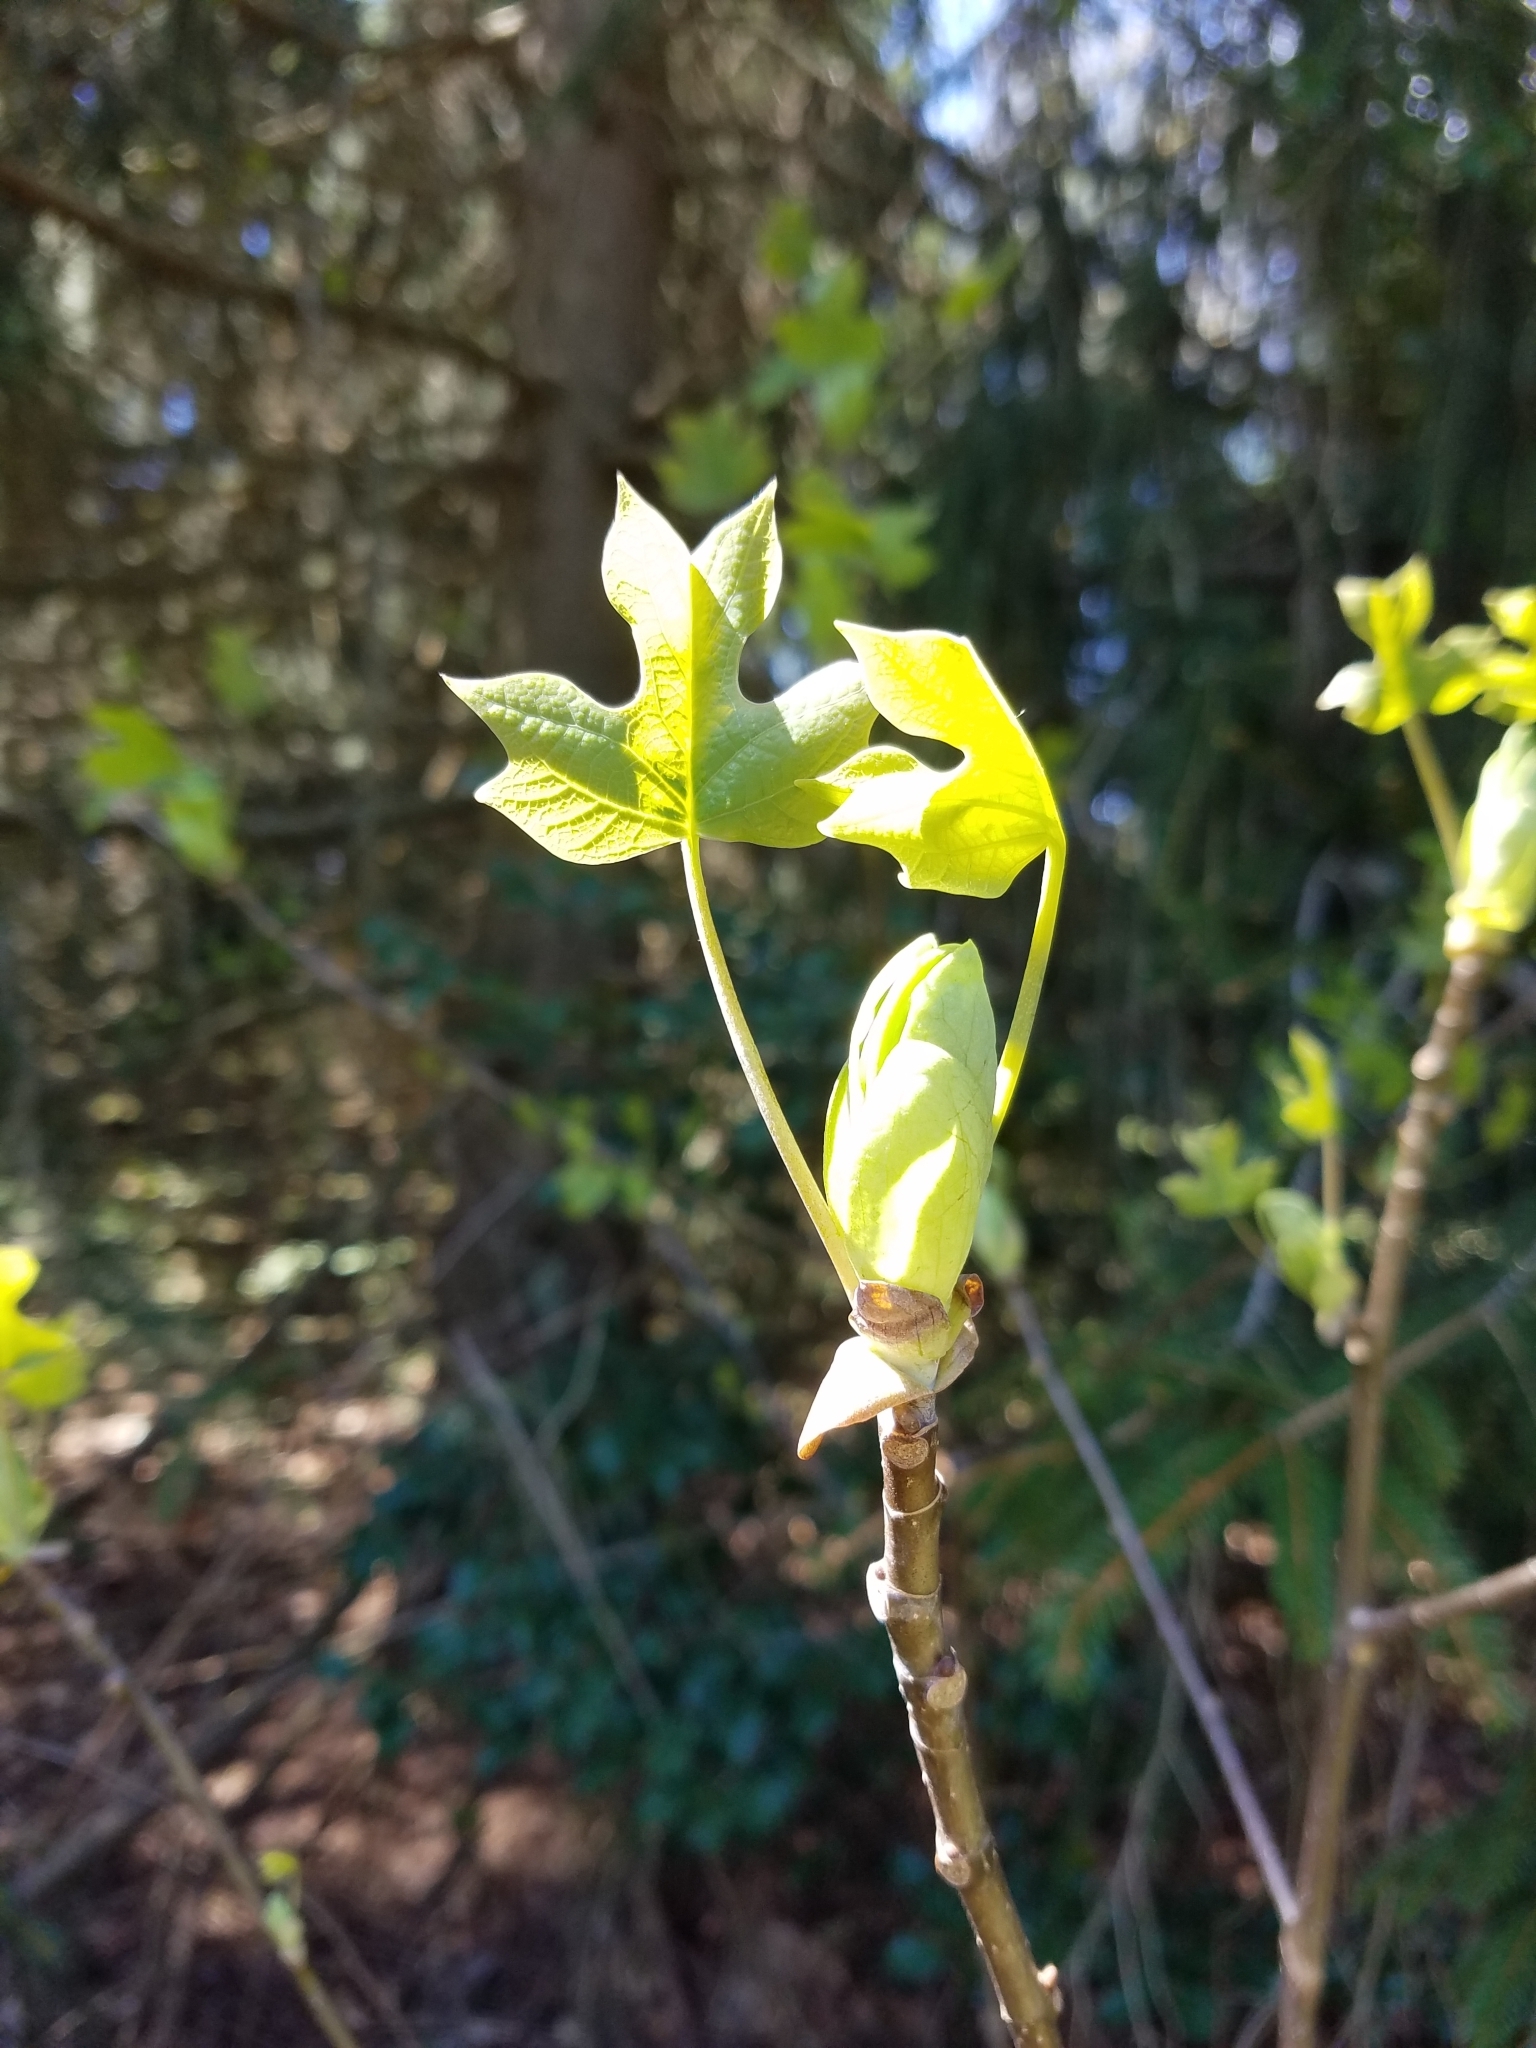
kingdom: Plantae
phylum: Tracheophyta
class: Magnoliopsida
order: Magnoliales
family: Magnoliaceae
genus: Liriodendron
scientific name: Liriodendron tulipifera
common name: Tulip tree
